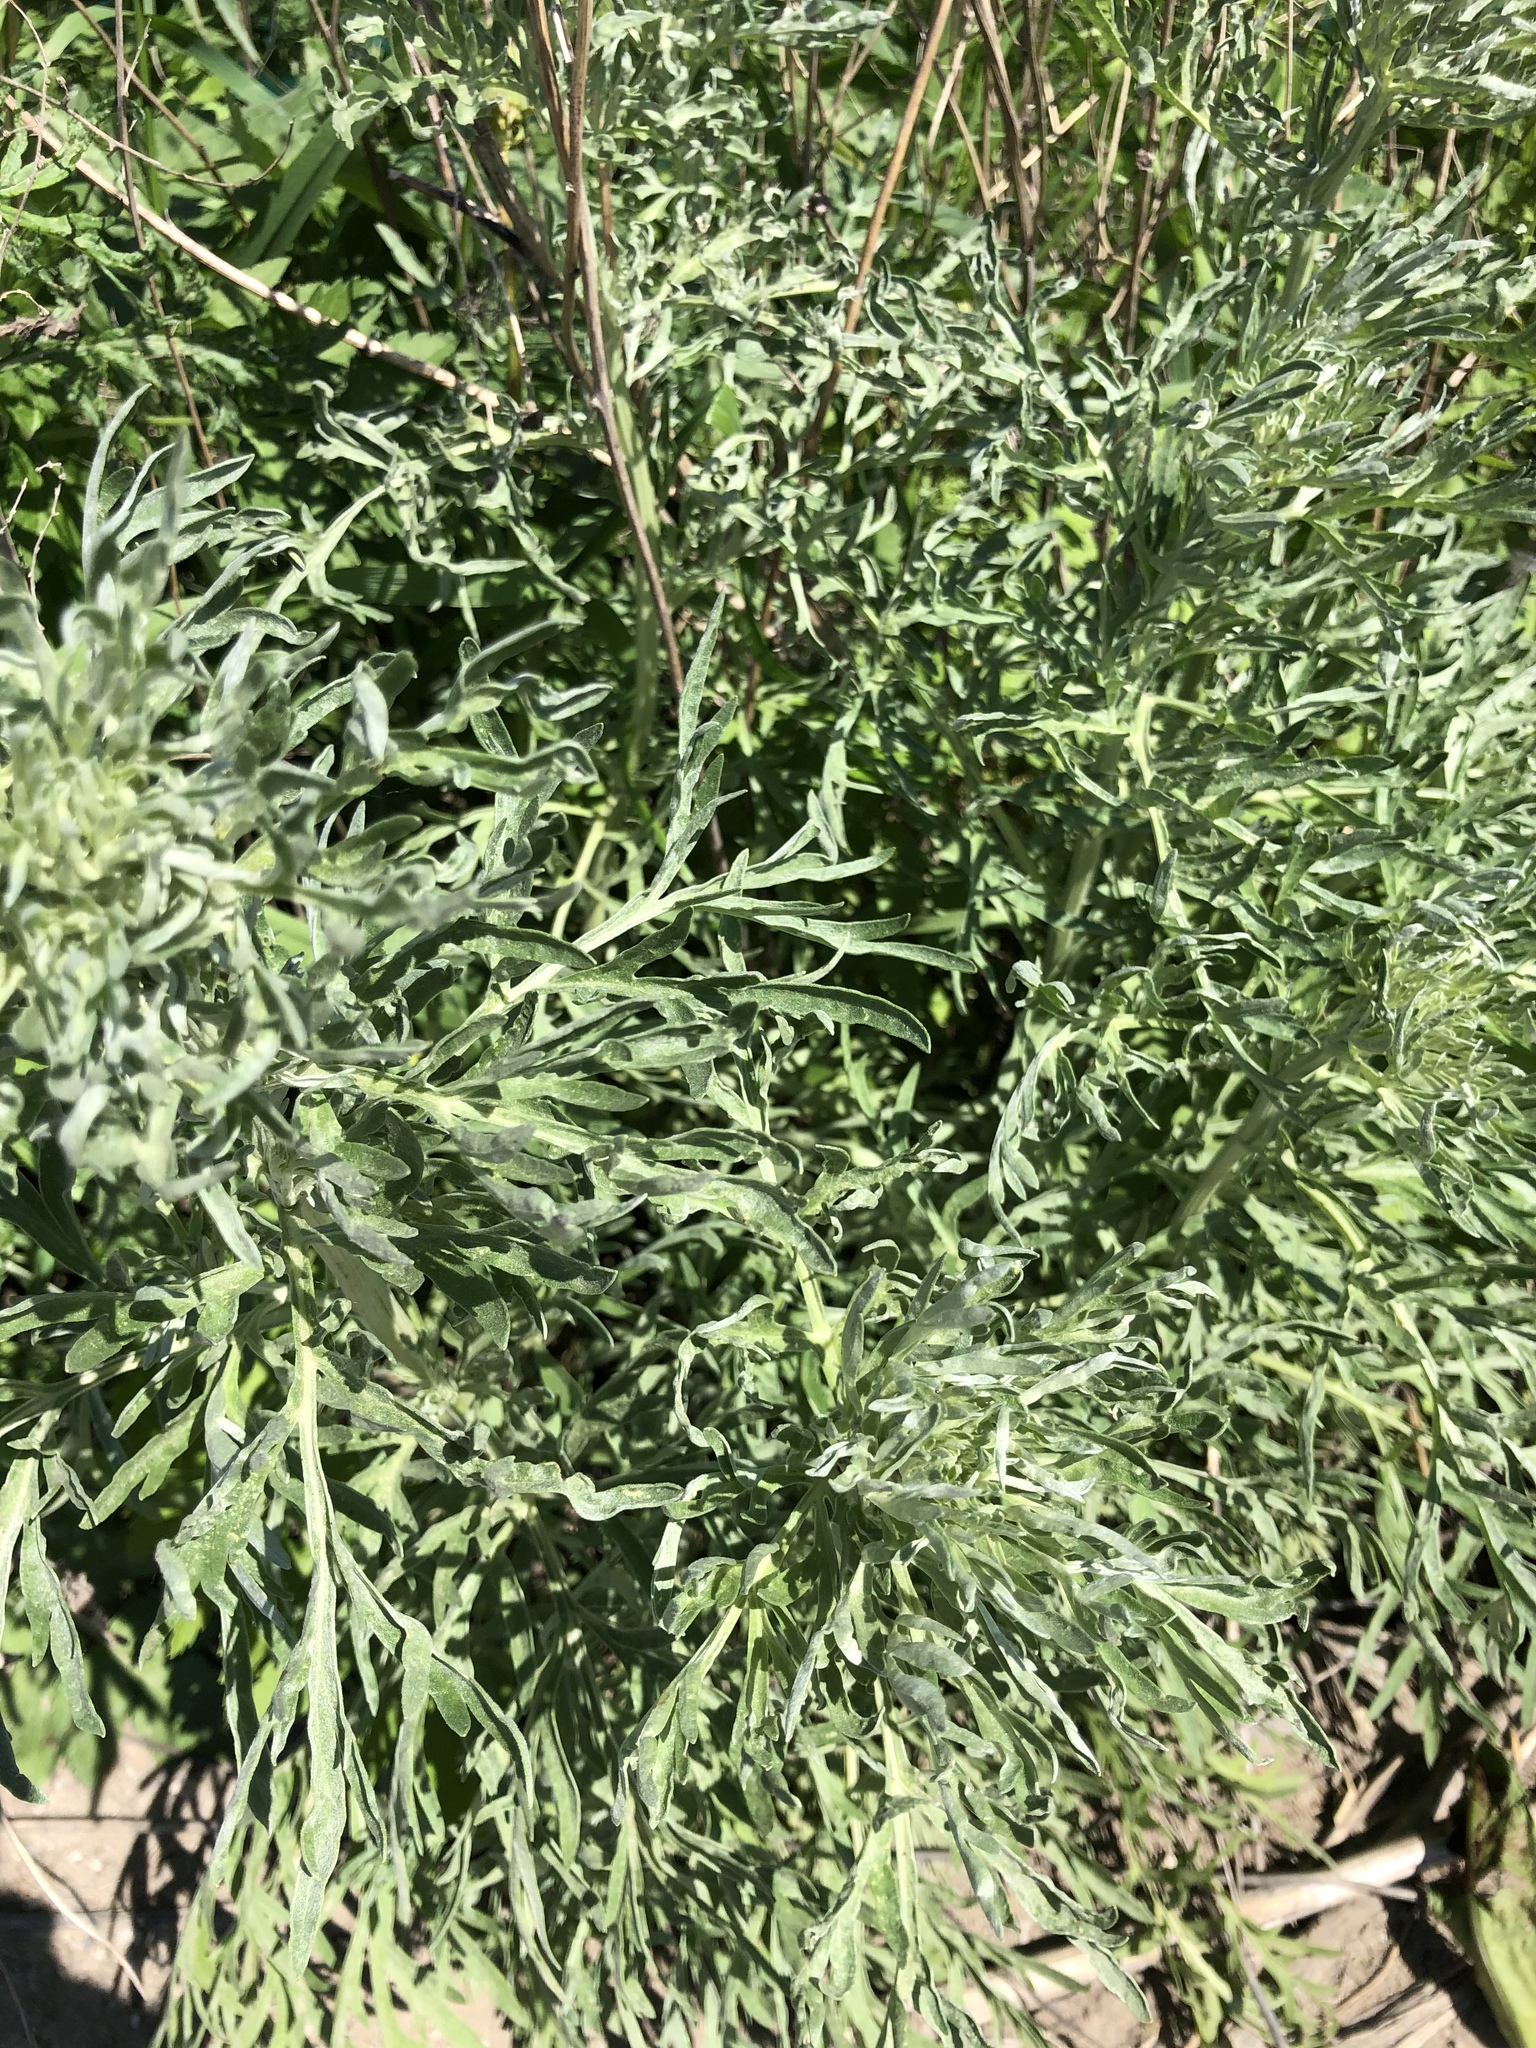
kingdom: Plantae
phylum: Tracheophyta
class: Magnoliopsida
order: Asterales
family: Asteraceae
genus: Artemisia
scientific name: Artemisia absinthium
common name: Wormwood
